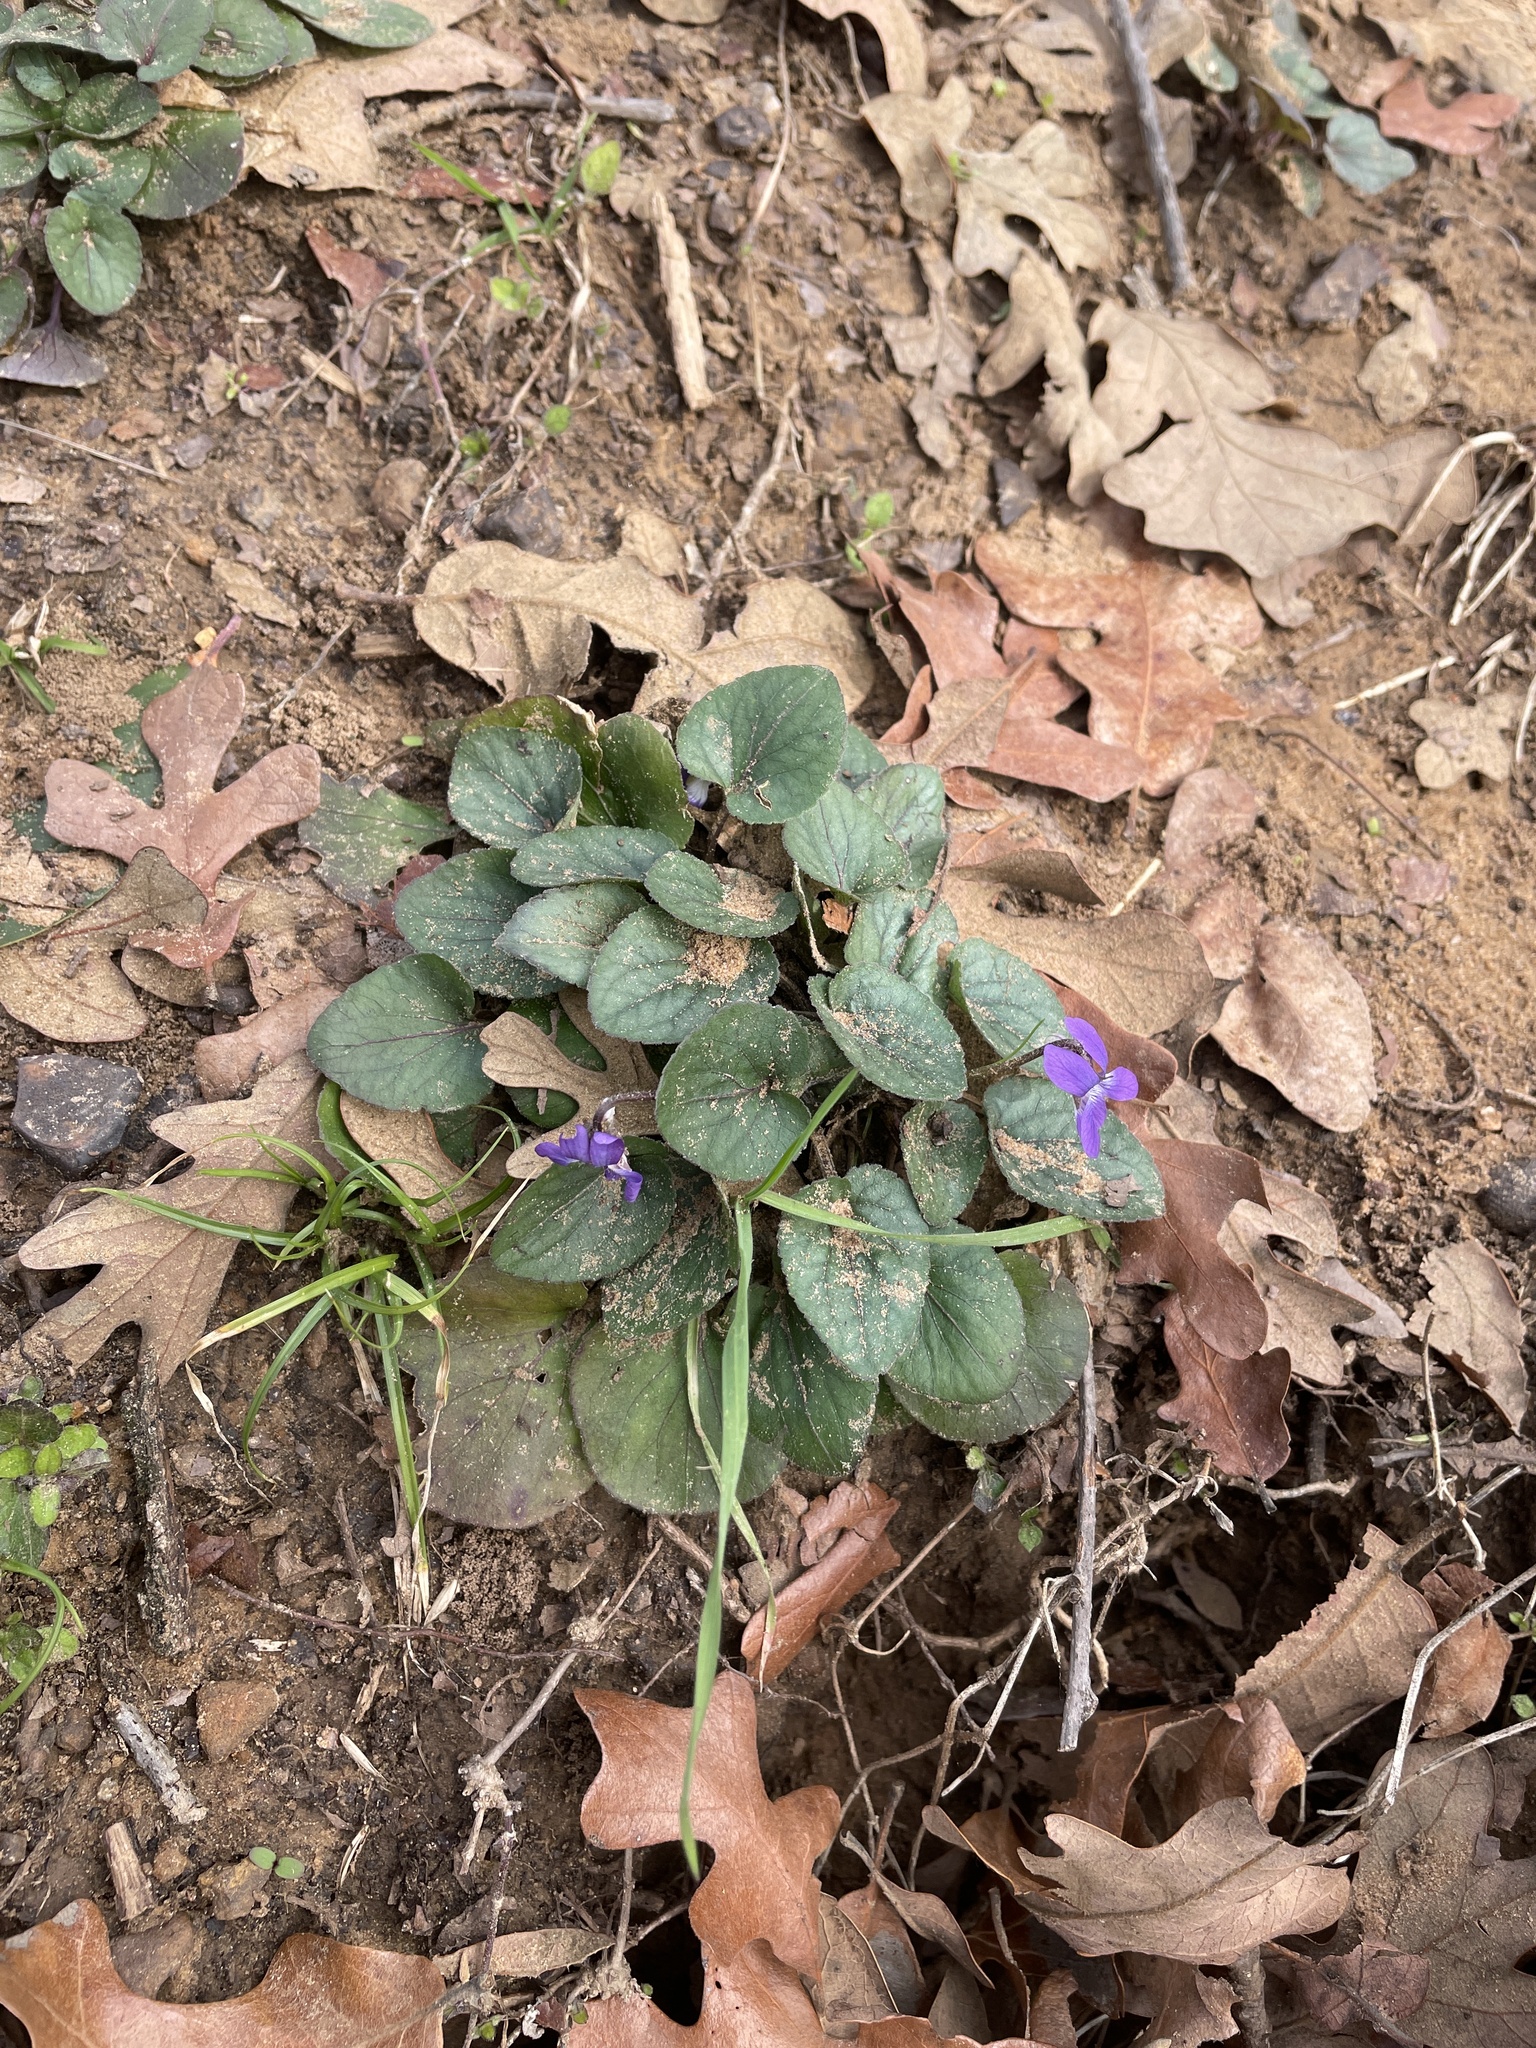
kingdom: Plantae
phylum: Tracheophyta
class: Magnoliopsida
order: Malpighiales
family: Violaceae
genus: Viola
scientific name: Viola villosa
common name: Carolina violet
